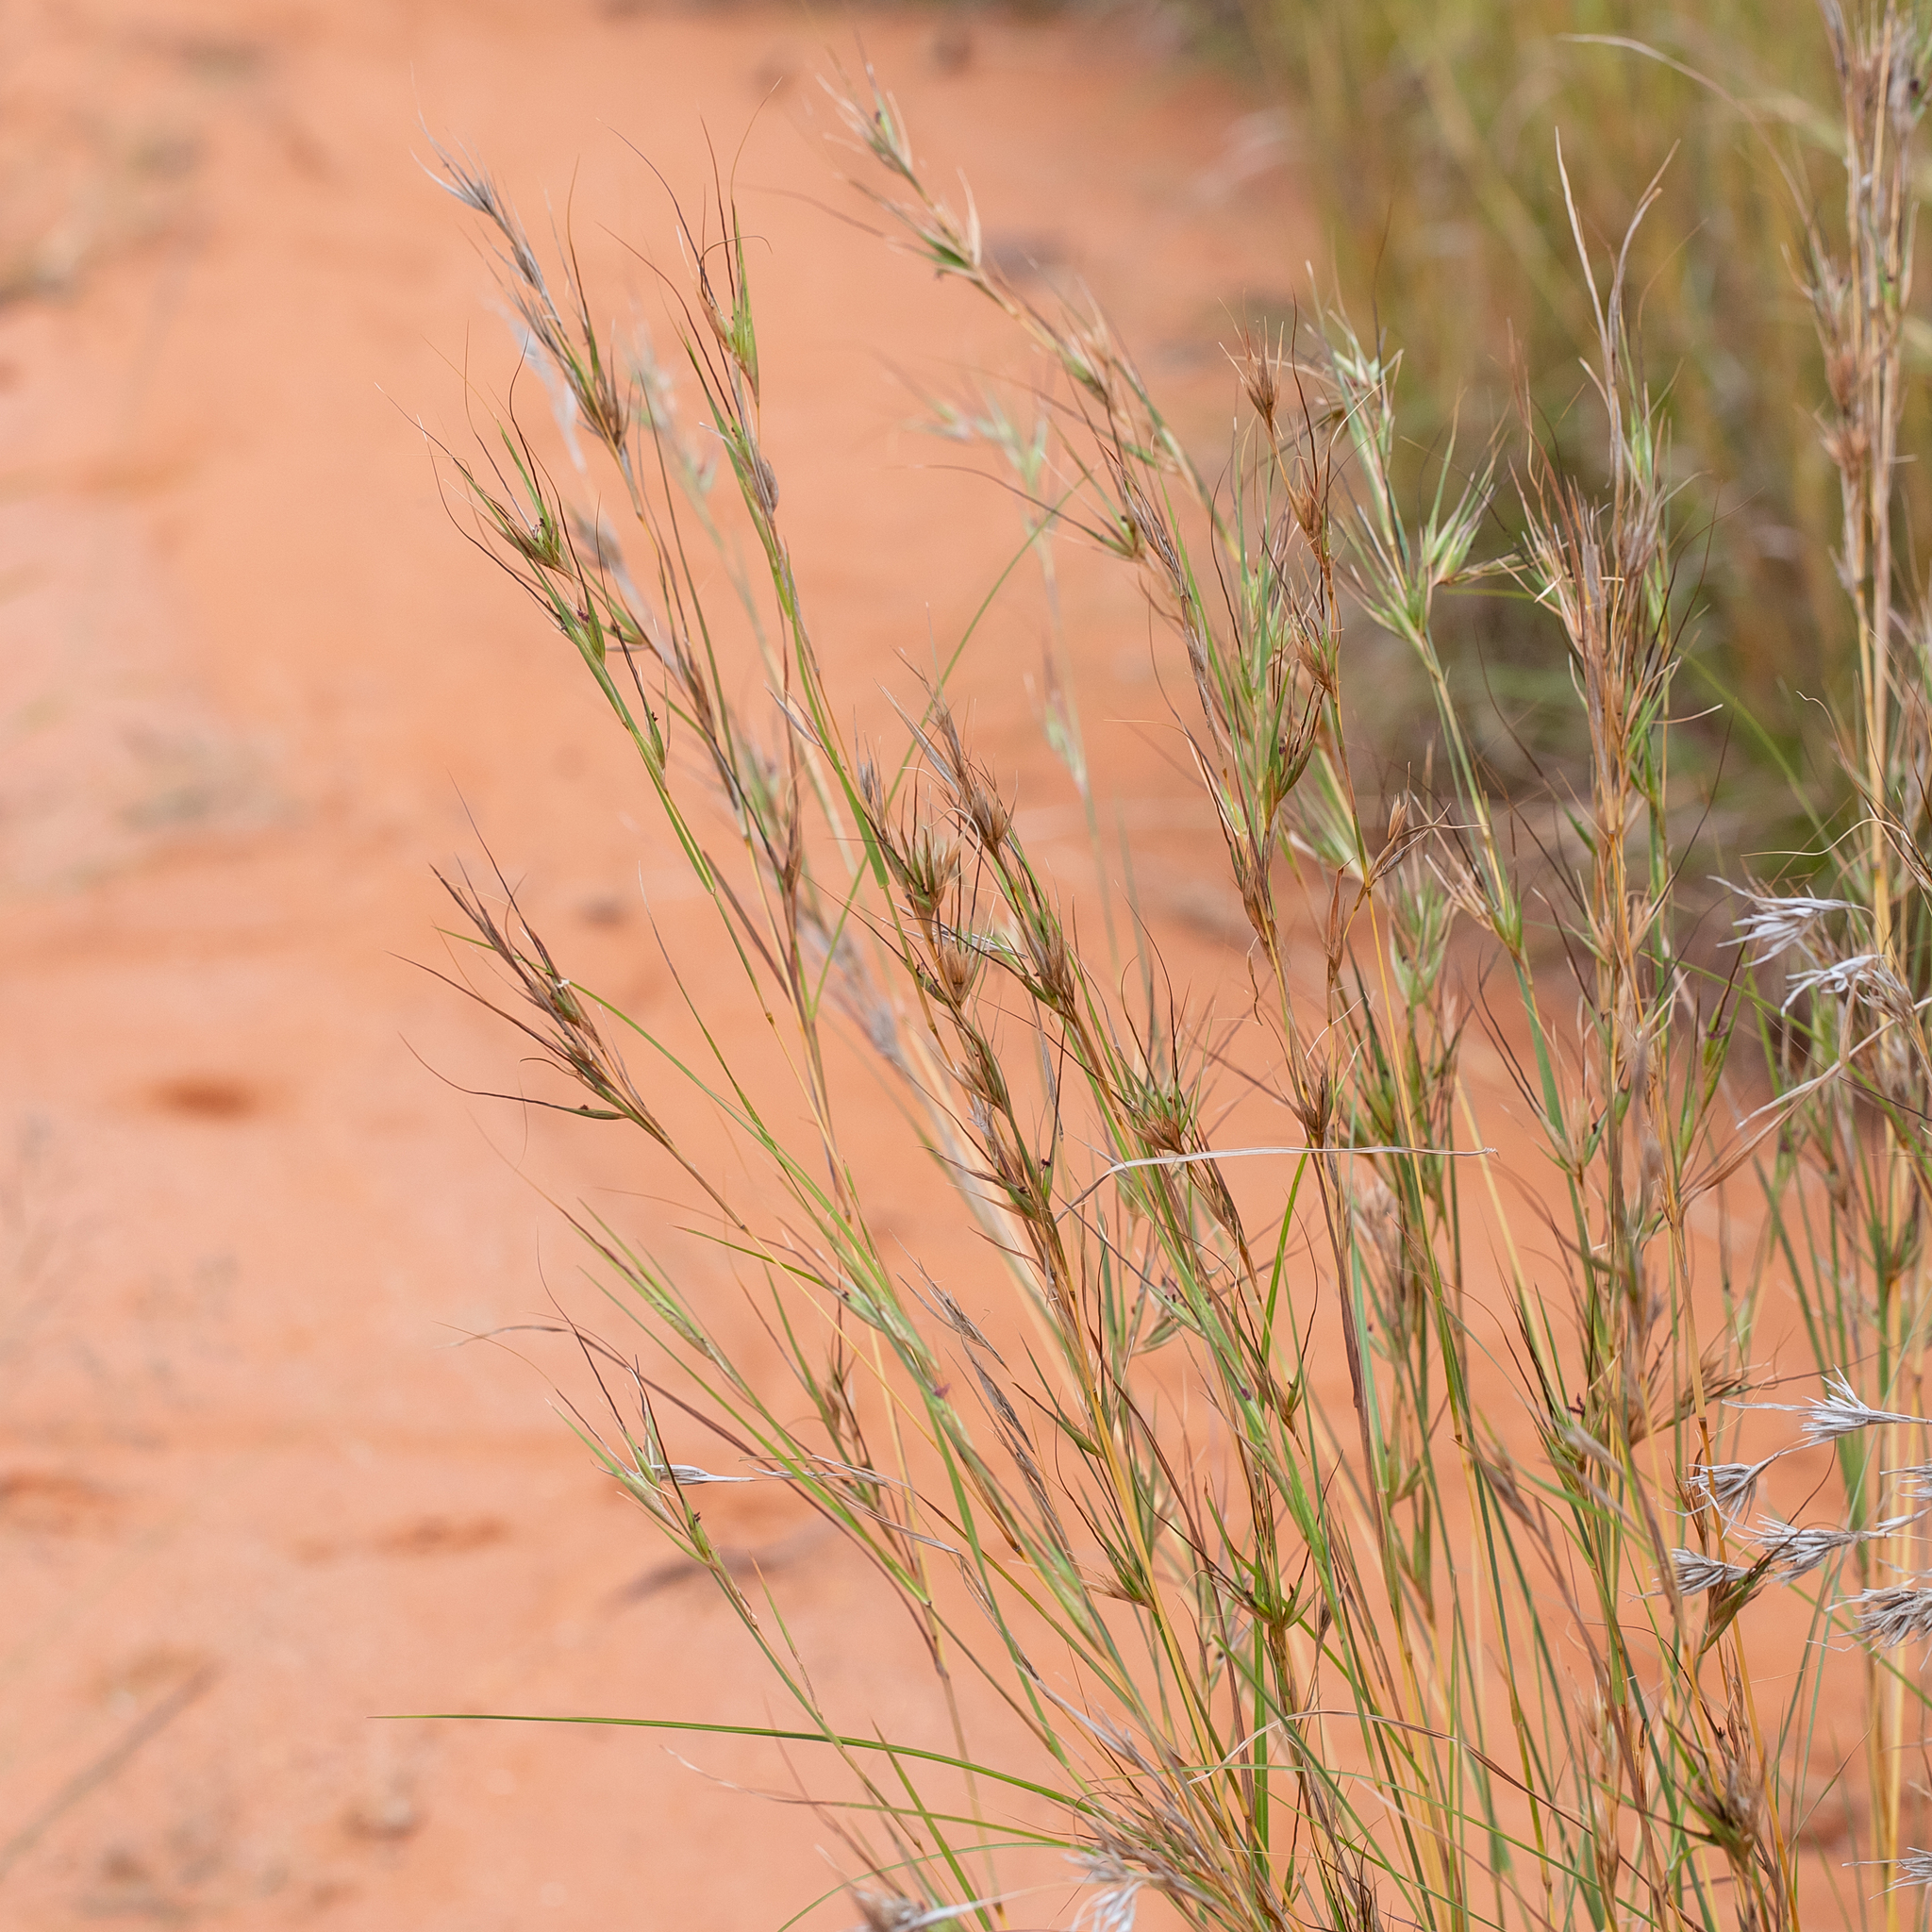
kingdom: Plantae
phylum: Tracheophyta
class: Liliopsida
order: Poales
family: Poaceae
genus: Themeda
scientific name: Themeda triandra
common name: Kangaroo grass
